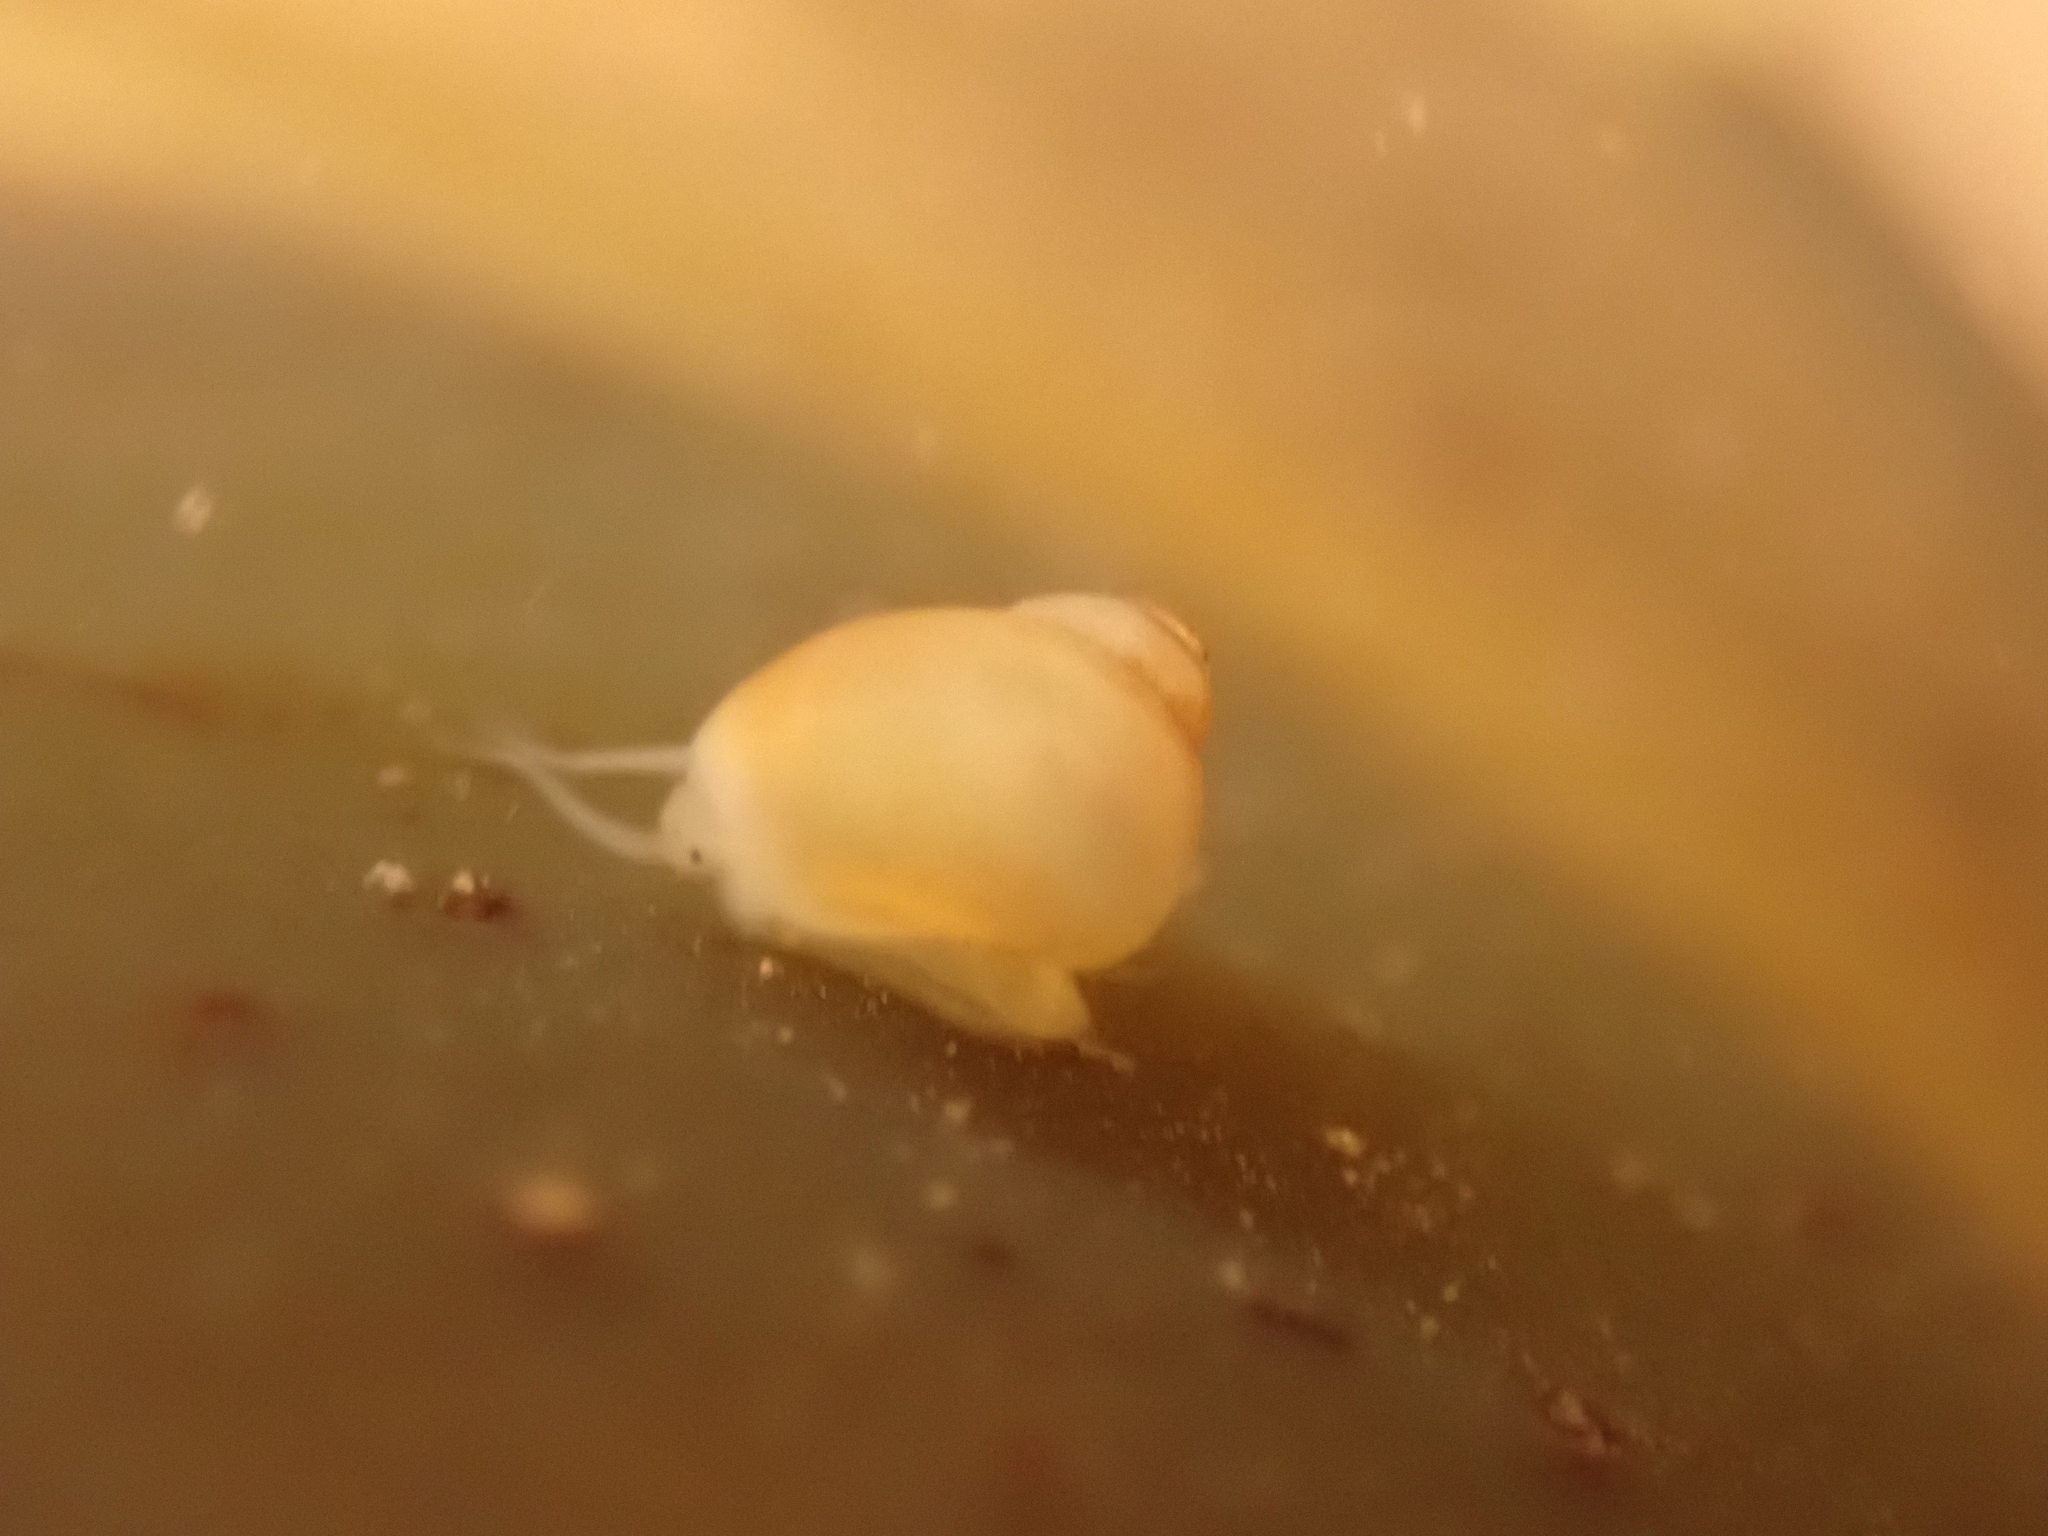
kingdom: Animalia
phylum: Mollusca
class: Gastropoda
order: Littorinimorpha
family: Littorinidae
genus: Lacuna
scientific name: Lacuna vincta
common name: Banded chink shell
